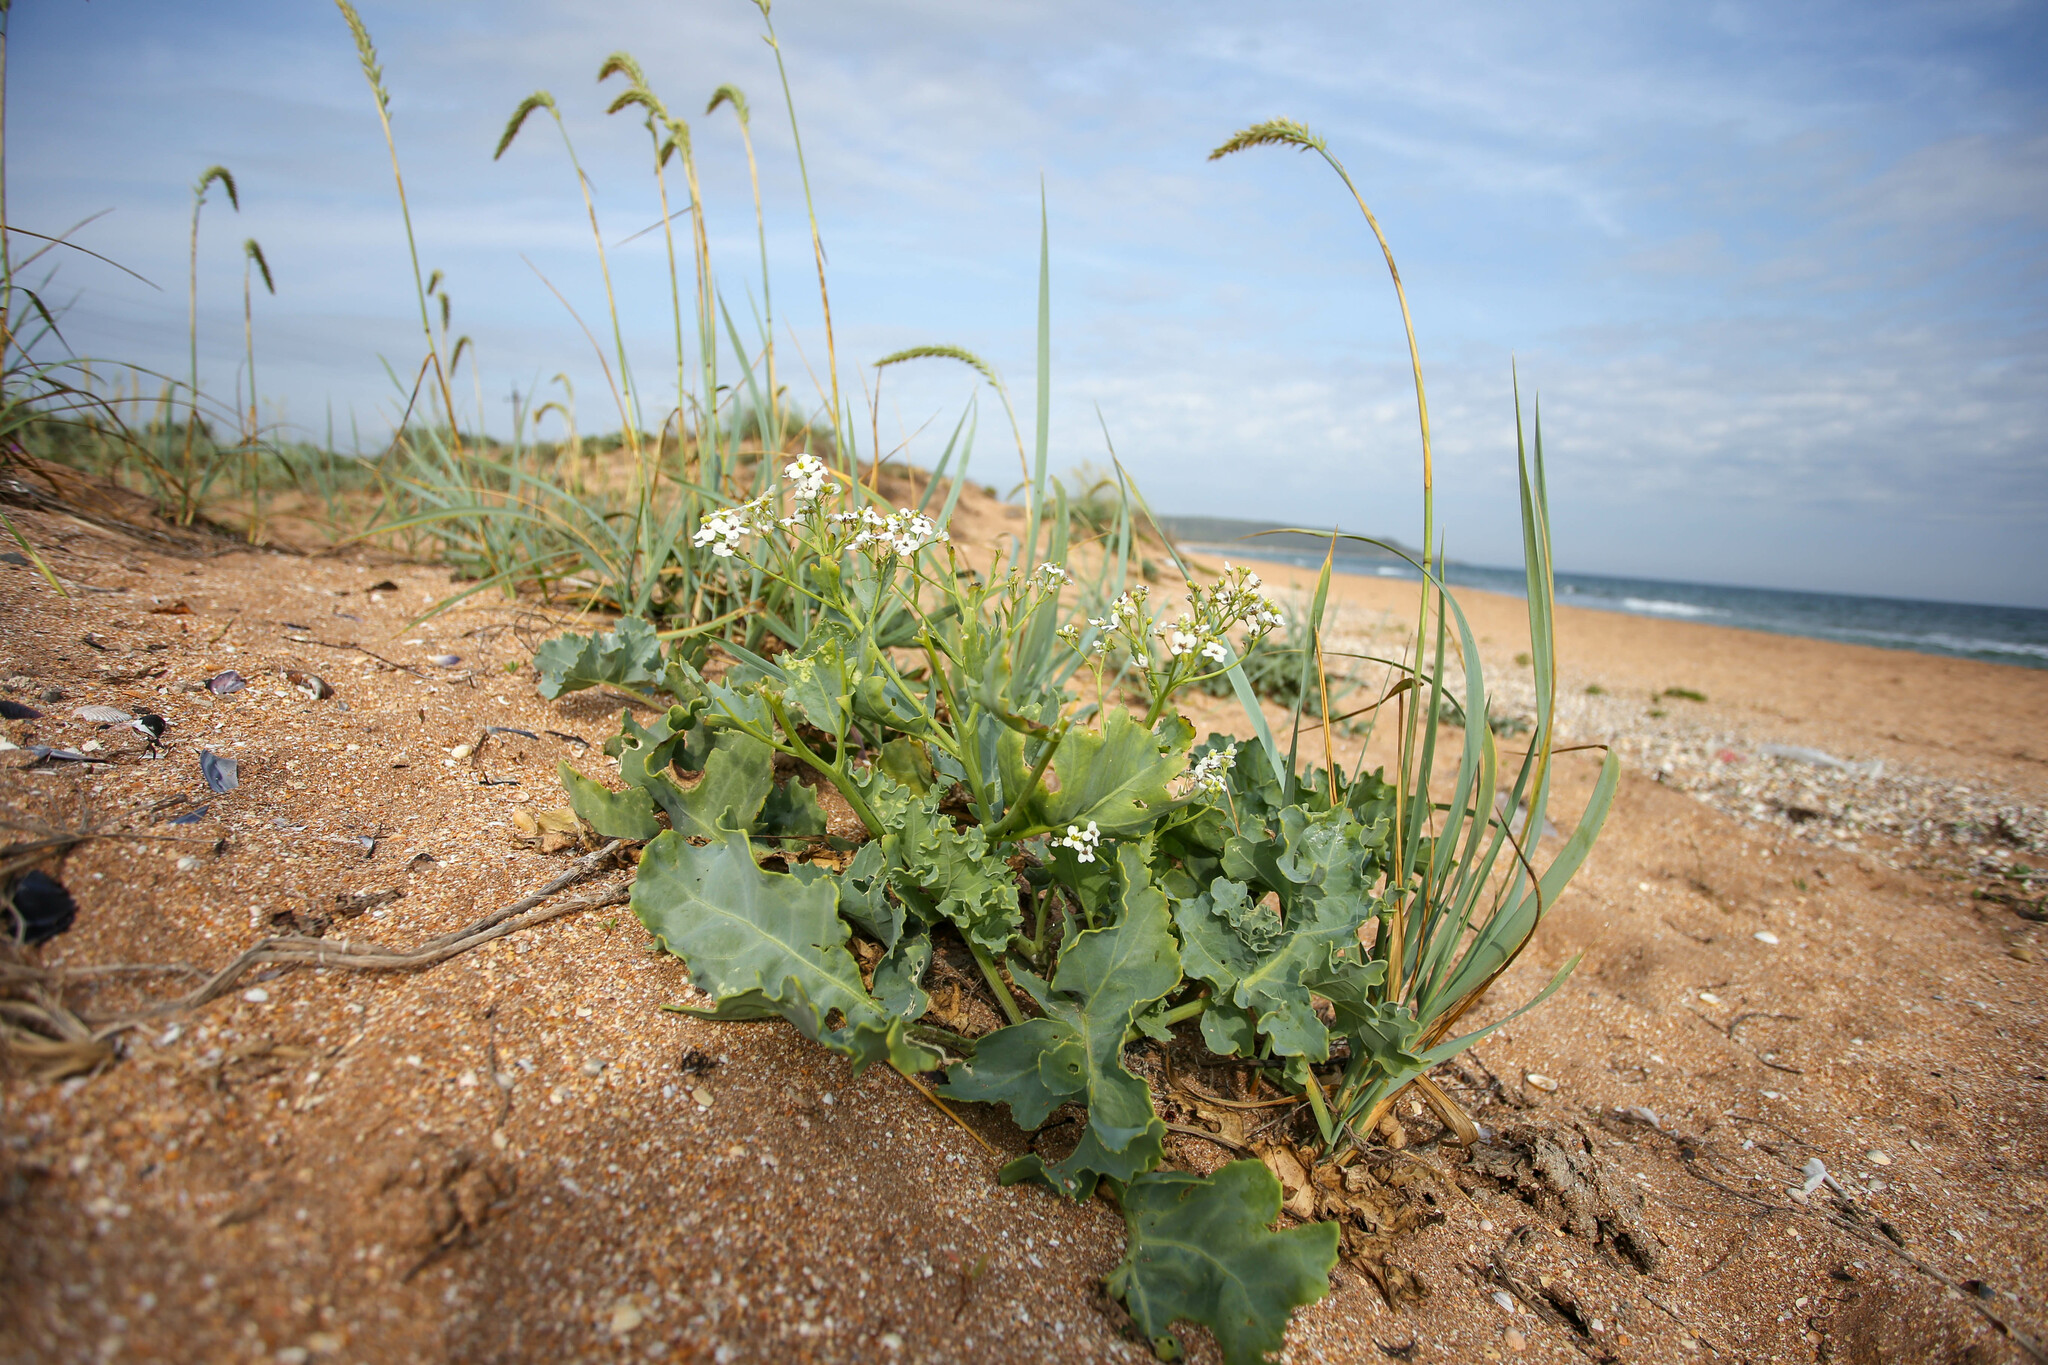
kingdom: Plantae
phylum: Tracheophyta
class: Magnoliopsida
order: Brassicales
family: Brassicaceae
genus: Crambe
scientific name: Crambe maritima
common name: Sea-kale
